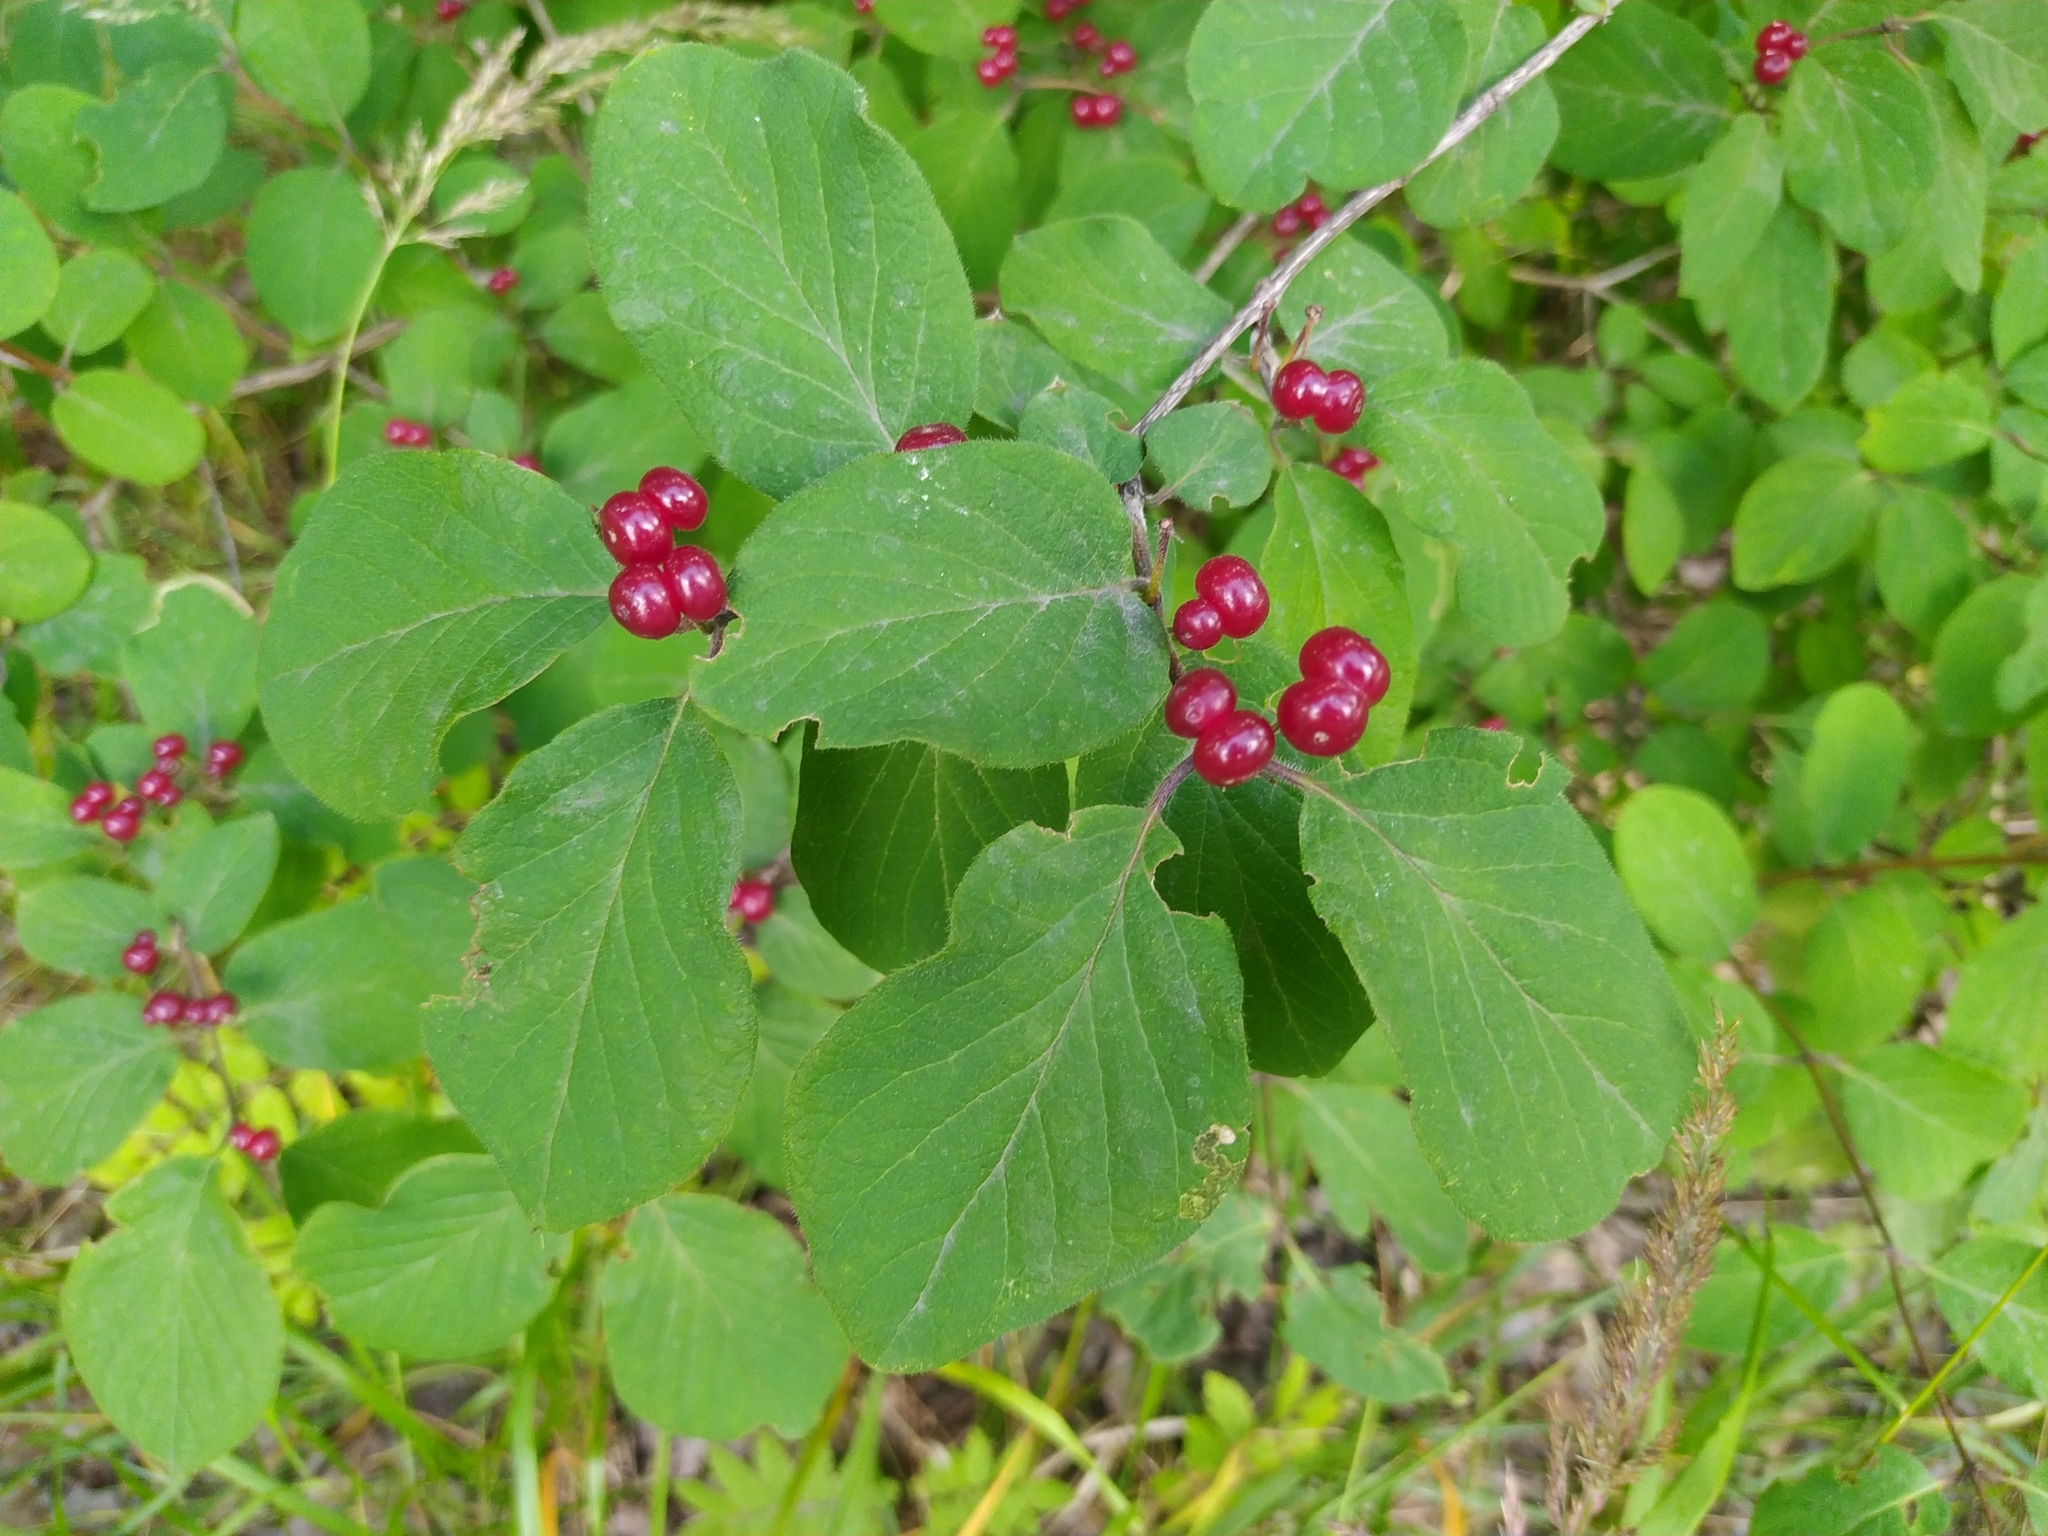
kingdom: Plantae
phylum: Tracheophyta
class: Magnoliopsida
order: Dipsacales
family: Caprifoliaceae
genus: Lonicera
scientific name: Lonicera xylosteum
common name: Fly honeysuckle
